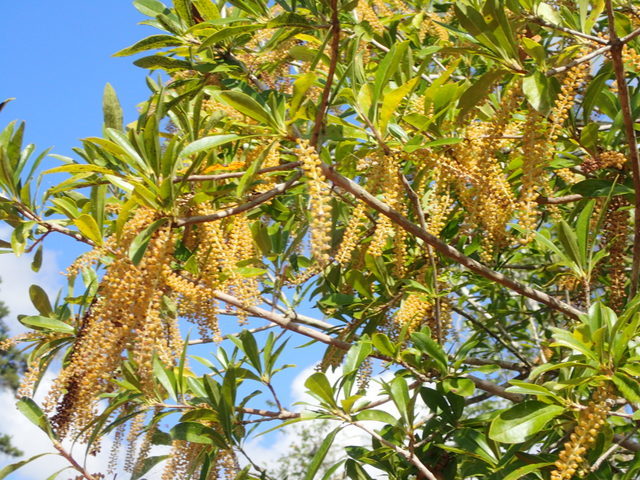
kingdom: Plantae
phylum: Tracheophyta
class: Magnoliopsida
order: Ericales
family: Cyrillaceae
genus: Cyrilla
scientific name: Cyrilla racemiflora
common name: Black titi
